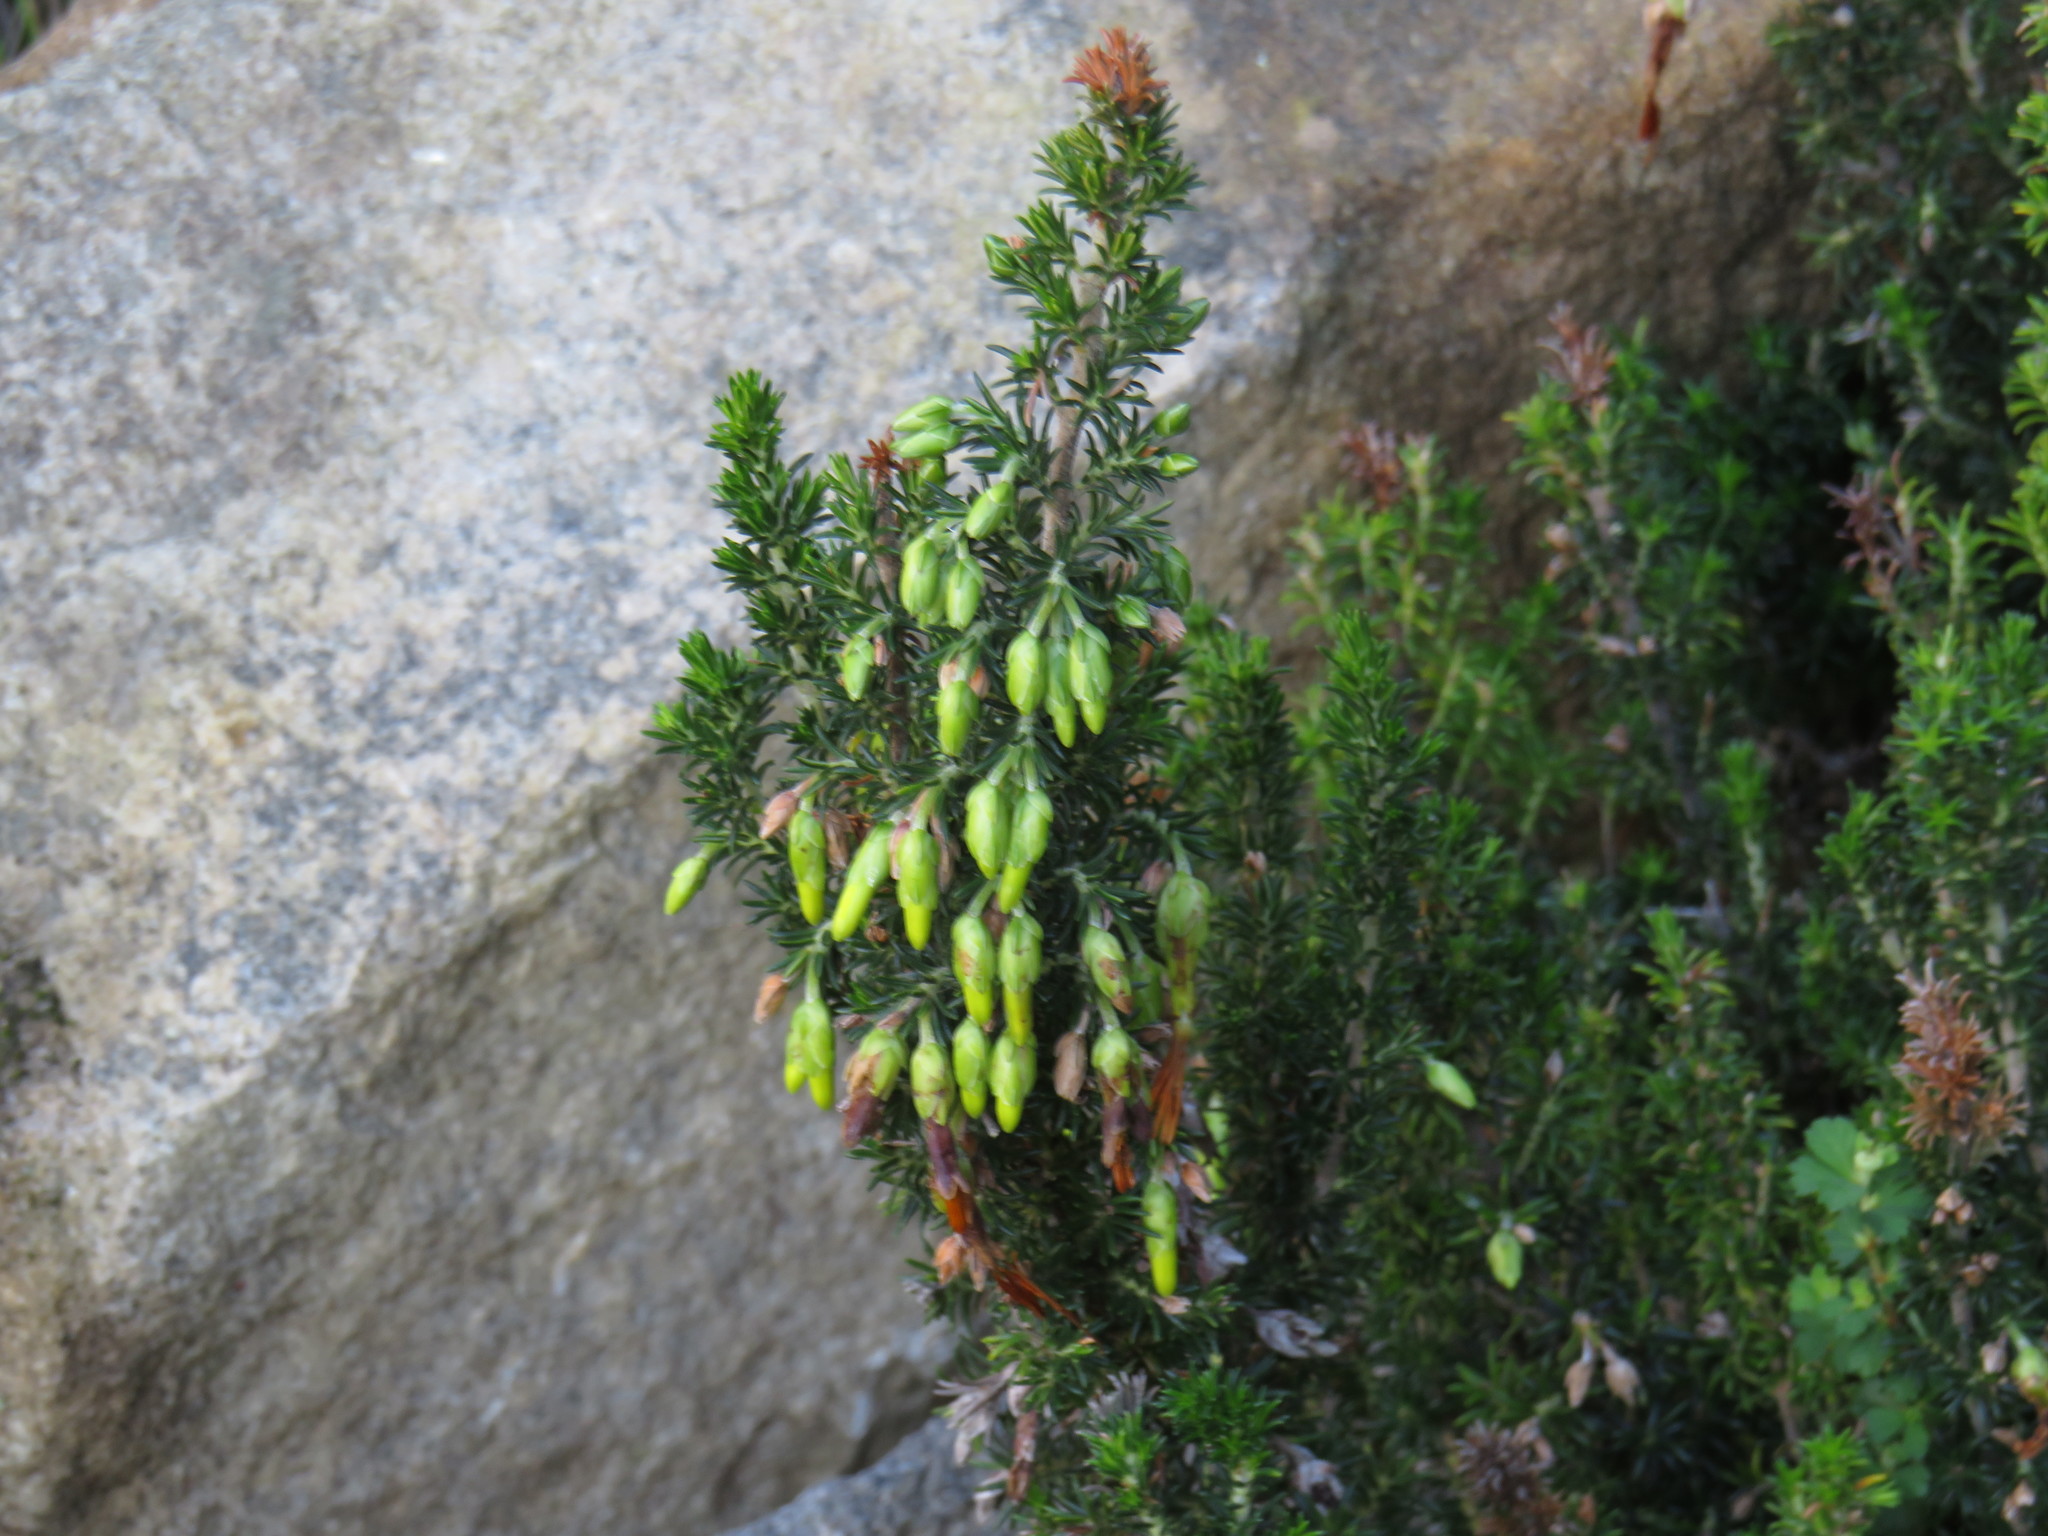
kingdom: Plantae
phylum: Tracheophyta
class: Magnoliopsida
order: Ericales
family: Ericaceae
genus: Erica
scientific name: Erica coccinea
